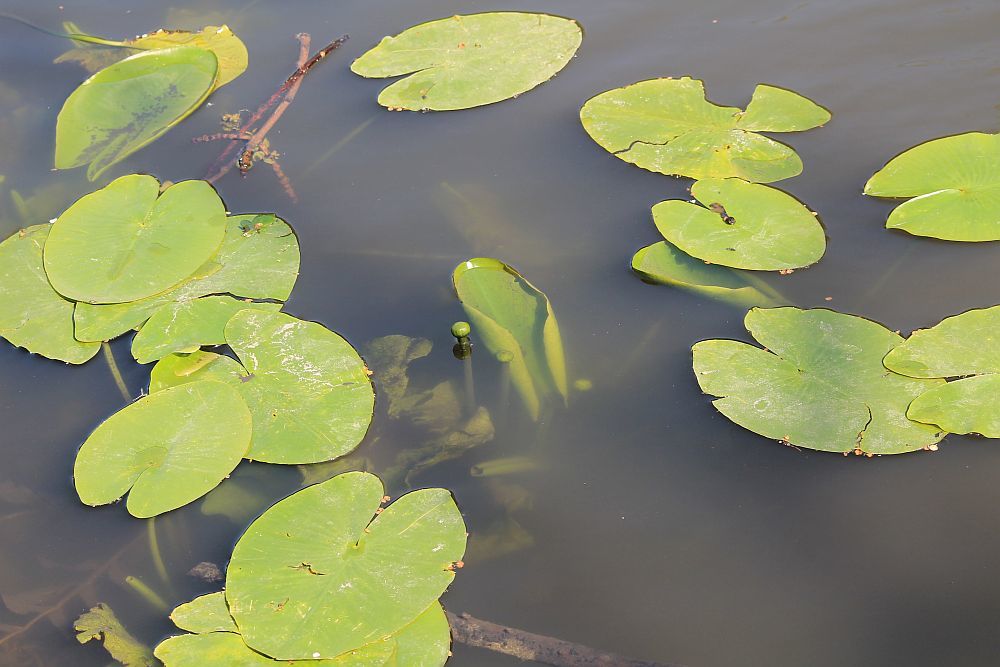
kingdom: Plantae
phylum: Tracheophyta
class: Magnoliopsida
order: Nymphaeales
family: Nymphaeaceae
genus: Nuphar
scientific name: Nuphar lutea
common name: Yellow water-lily
